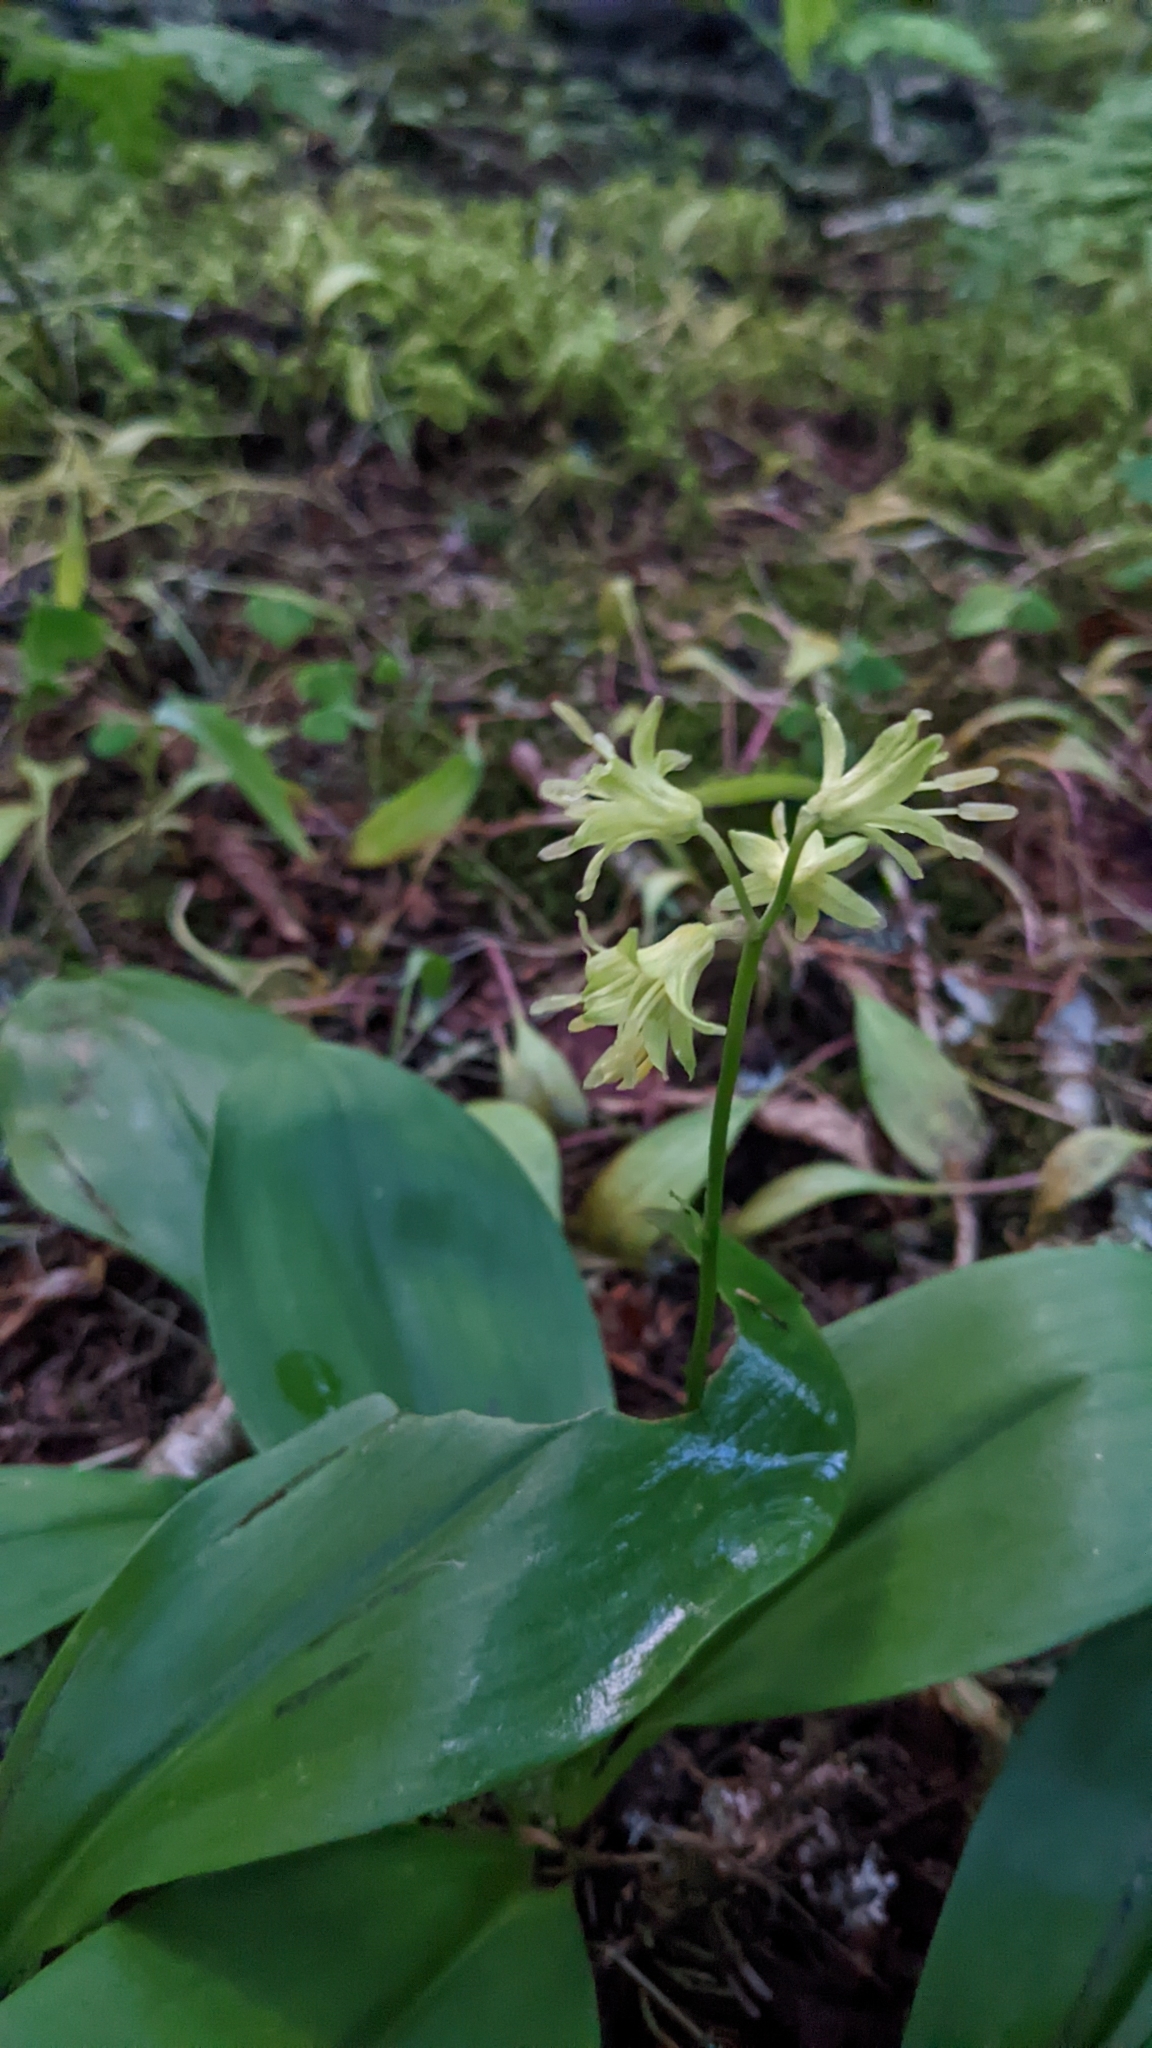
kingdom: Plantae
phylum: Tracheophyta
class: Liliopsida
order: Liliales
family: Liliaceae
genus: Clintonia
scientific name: Clintonia borealis
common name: Yellow clintonia
